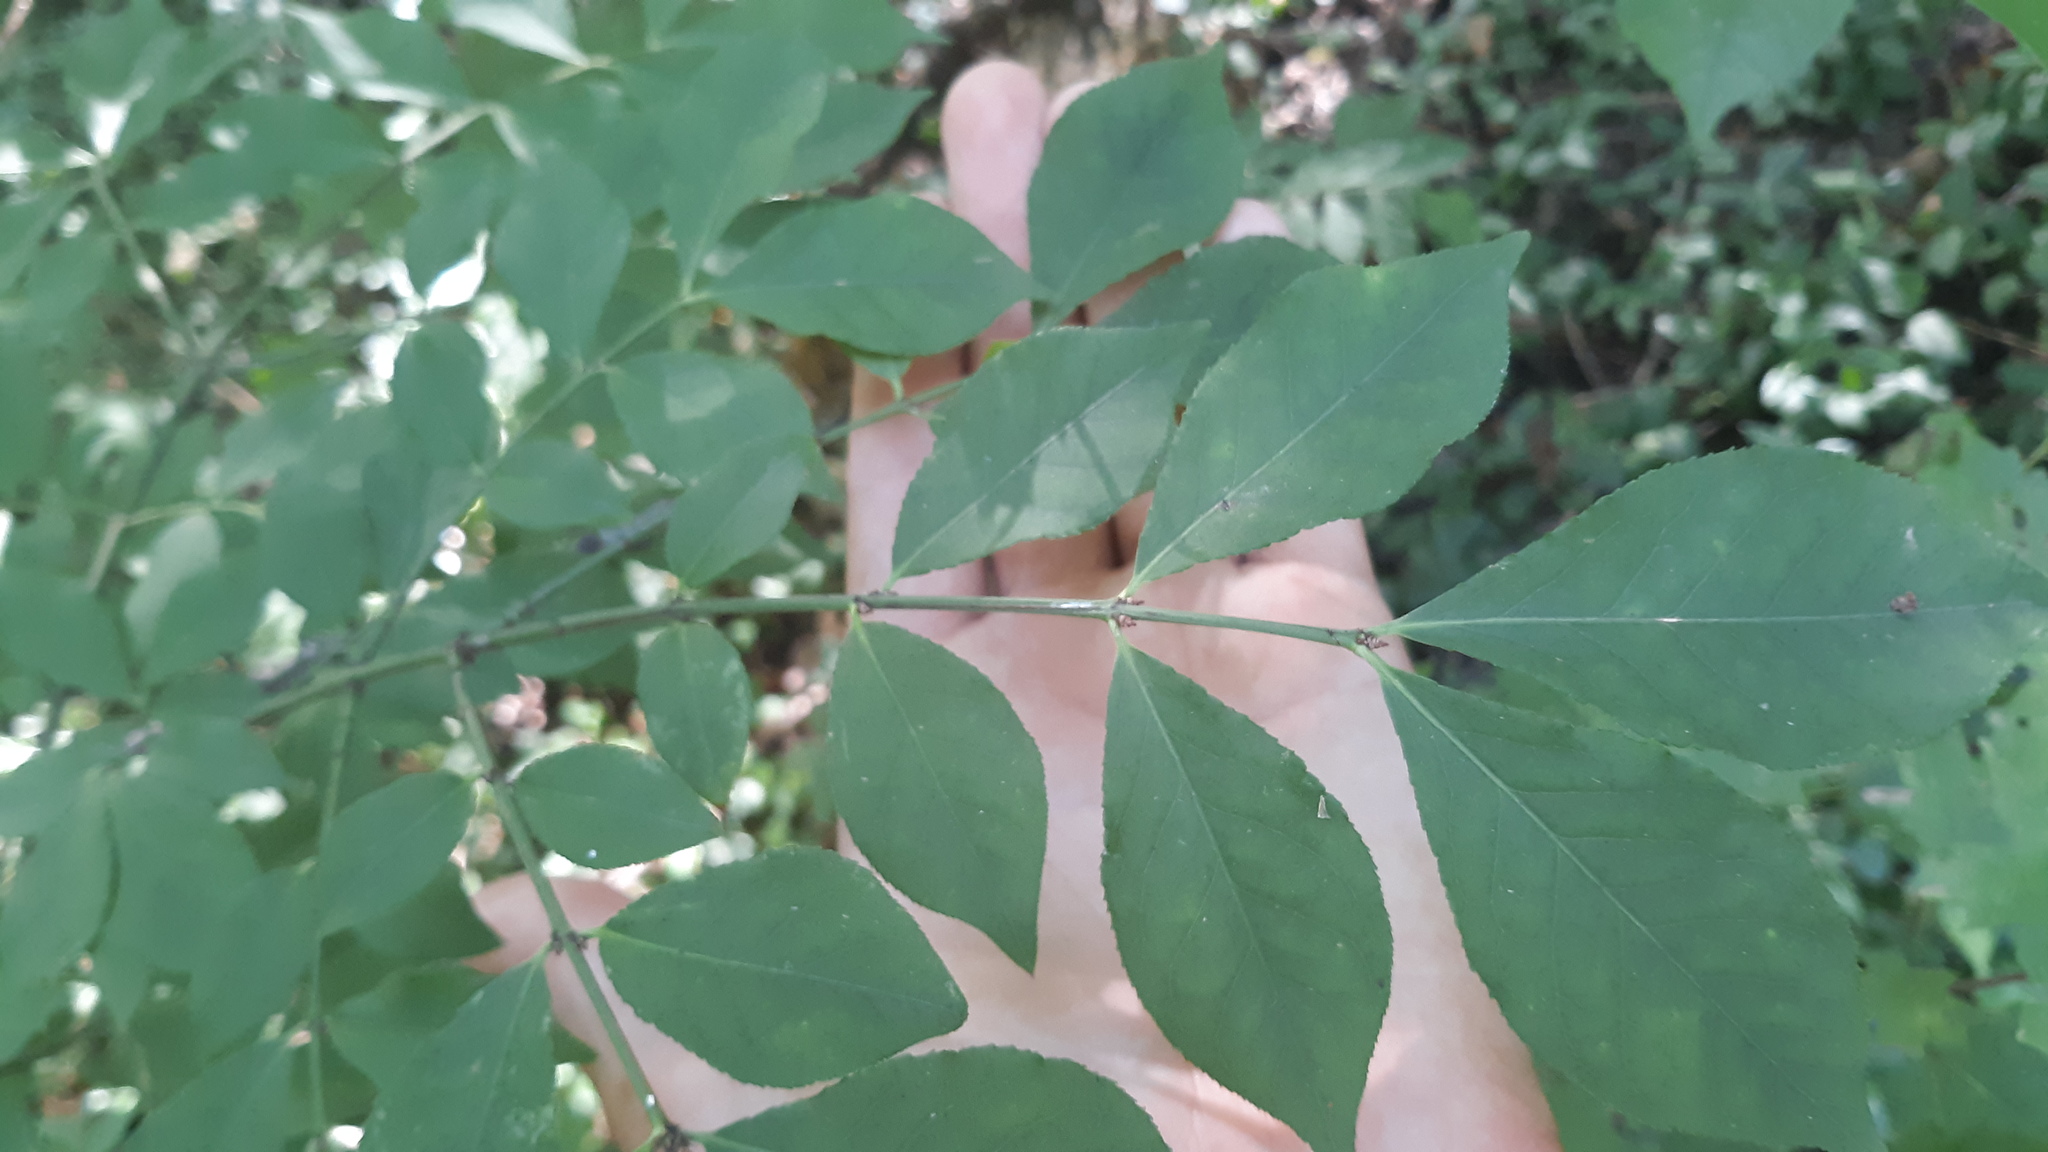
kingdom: Plantae
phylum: Tracheophyta
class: Magnoliopsida
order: Celastrales
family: Celastraceae
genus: Euonymus
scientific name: Euonymus alatus
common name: Winged euonymus
